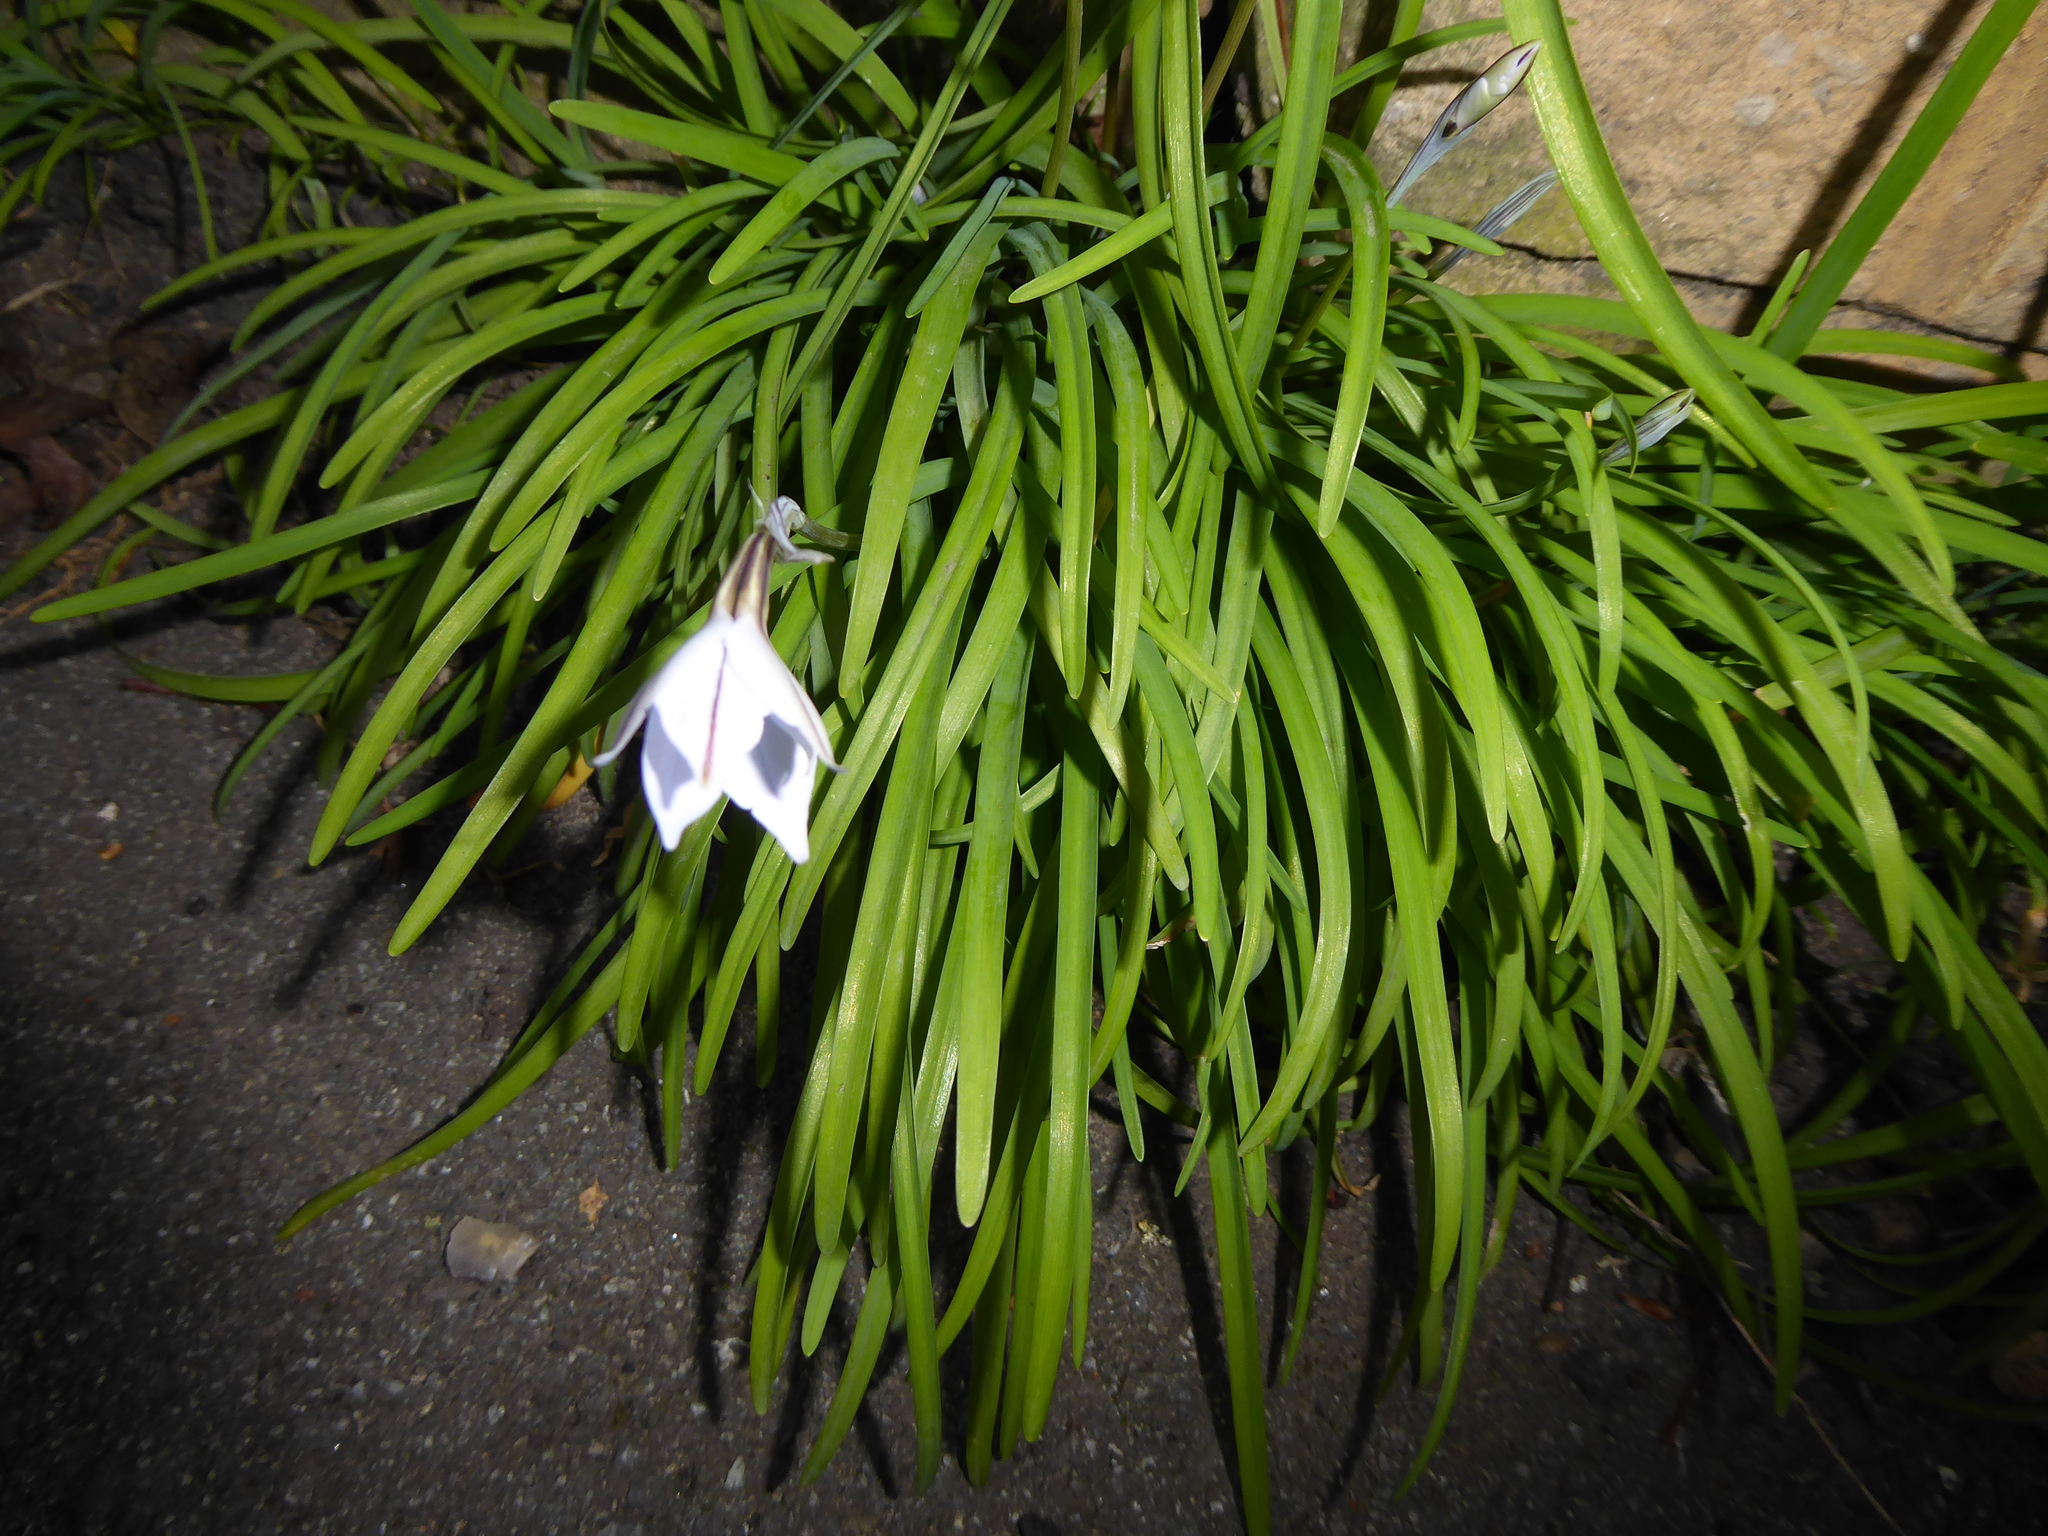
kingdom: Plantae
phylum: Tracheophyta
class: Liliopsida
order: Asparagales
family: Amaryllidaceae
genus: Ipheion
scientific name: Ipheion uniflorum
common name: Spring starflower
